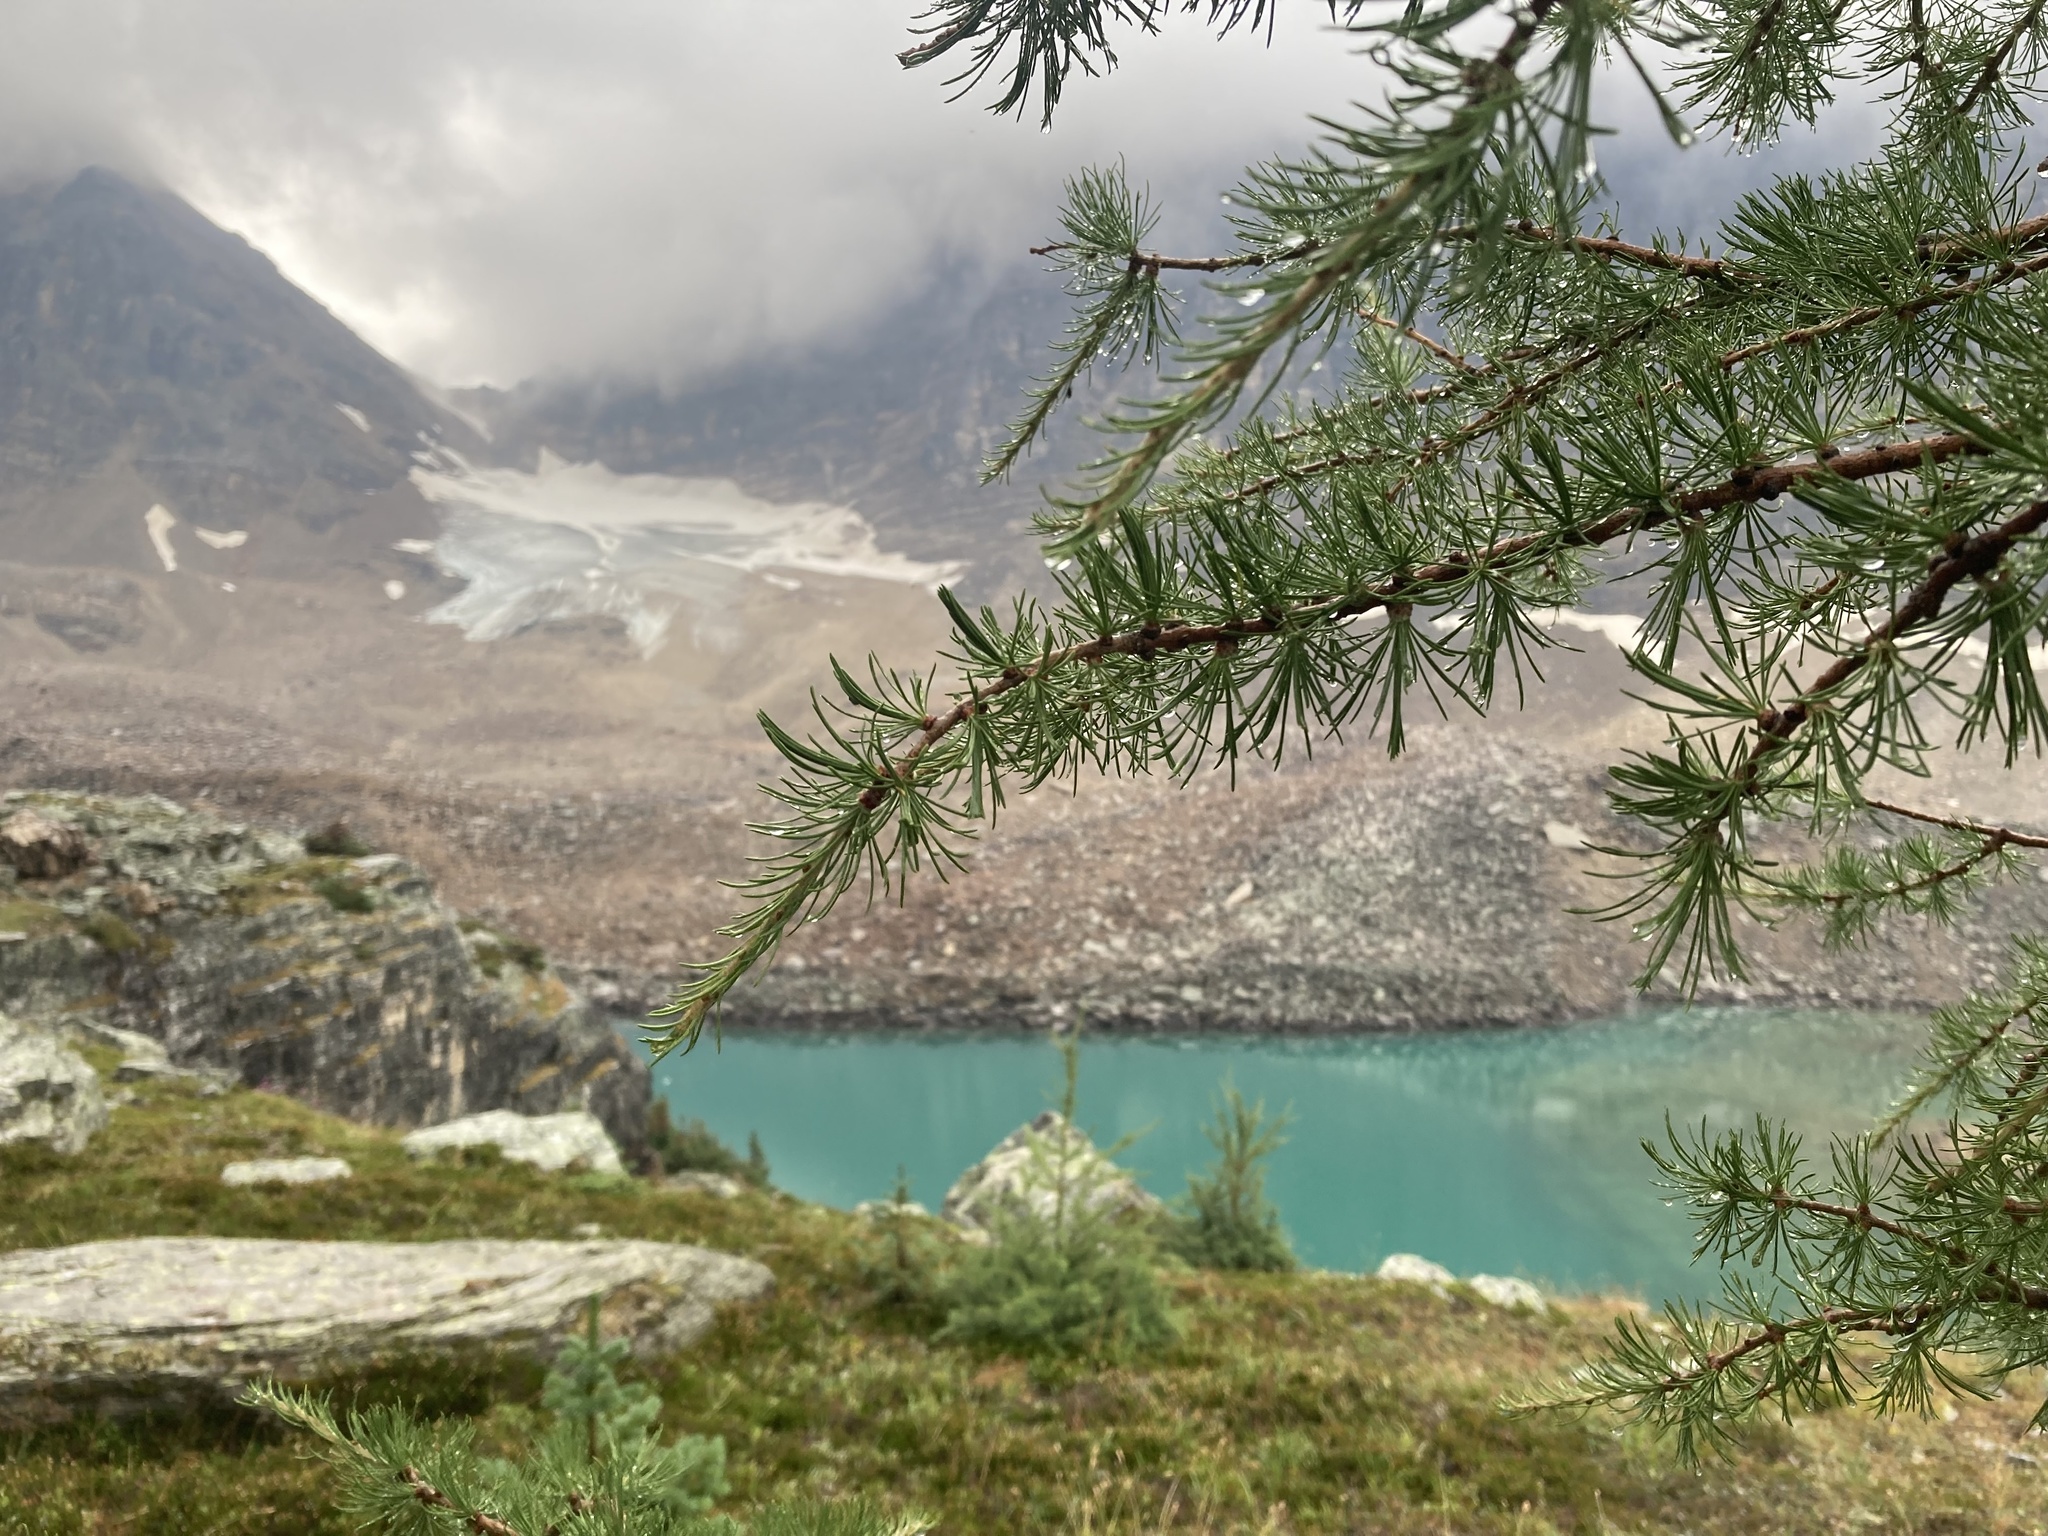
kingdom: Plantae
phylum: Tracheophyta
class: Pinopsida
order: Pinales
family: Pinaceae
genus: Larix
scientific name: Larix lyallii
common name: Alpine larch
